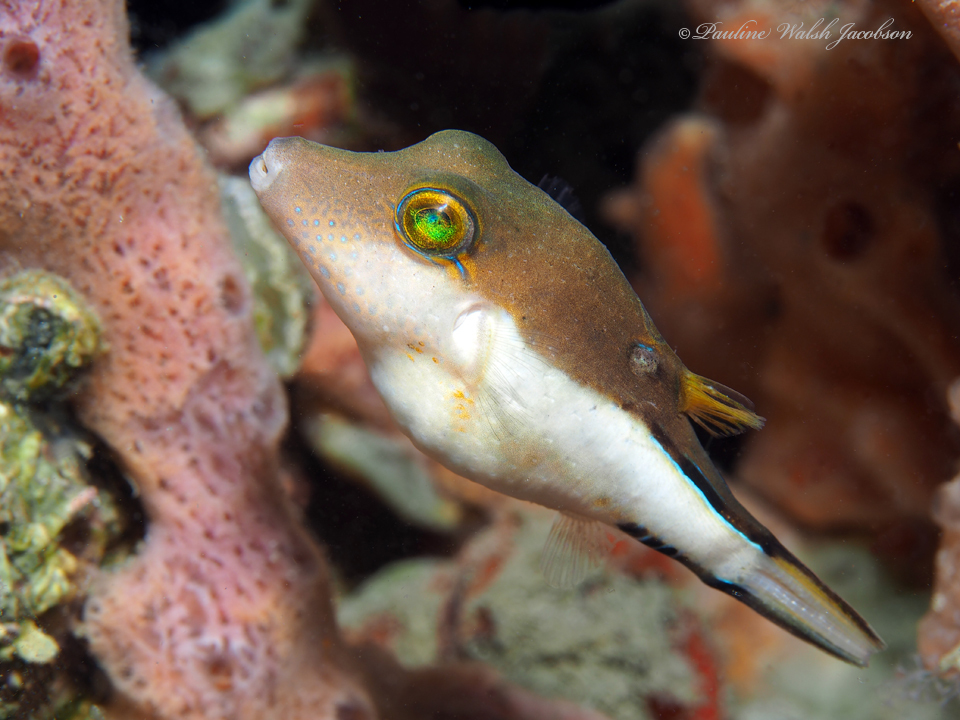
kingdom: Animalia
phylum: Chordata
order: Tetraodontiformes
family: Tetraodontidae
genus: Canthigaster
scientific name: Canthigaster rostrata
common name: Caribbean sharpnose-puffer
